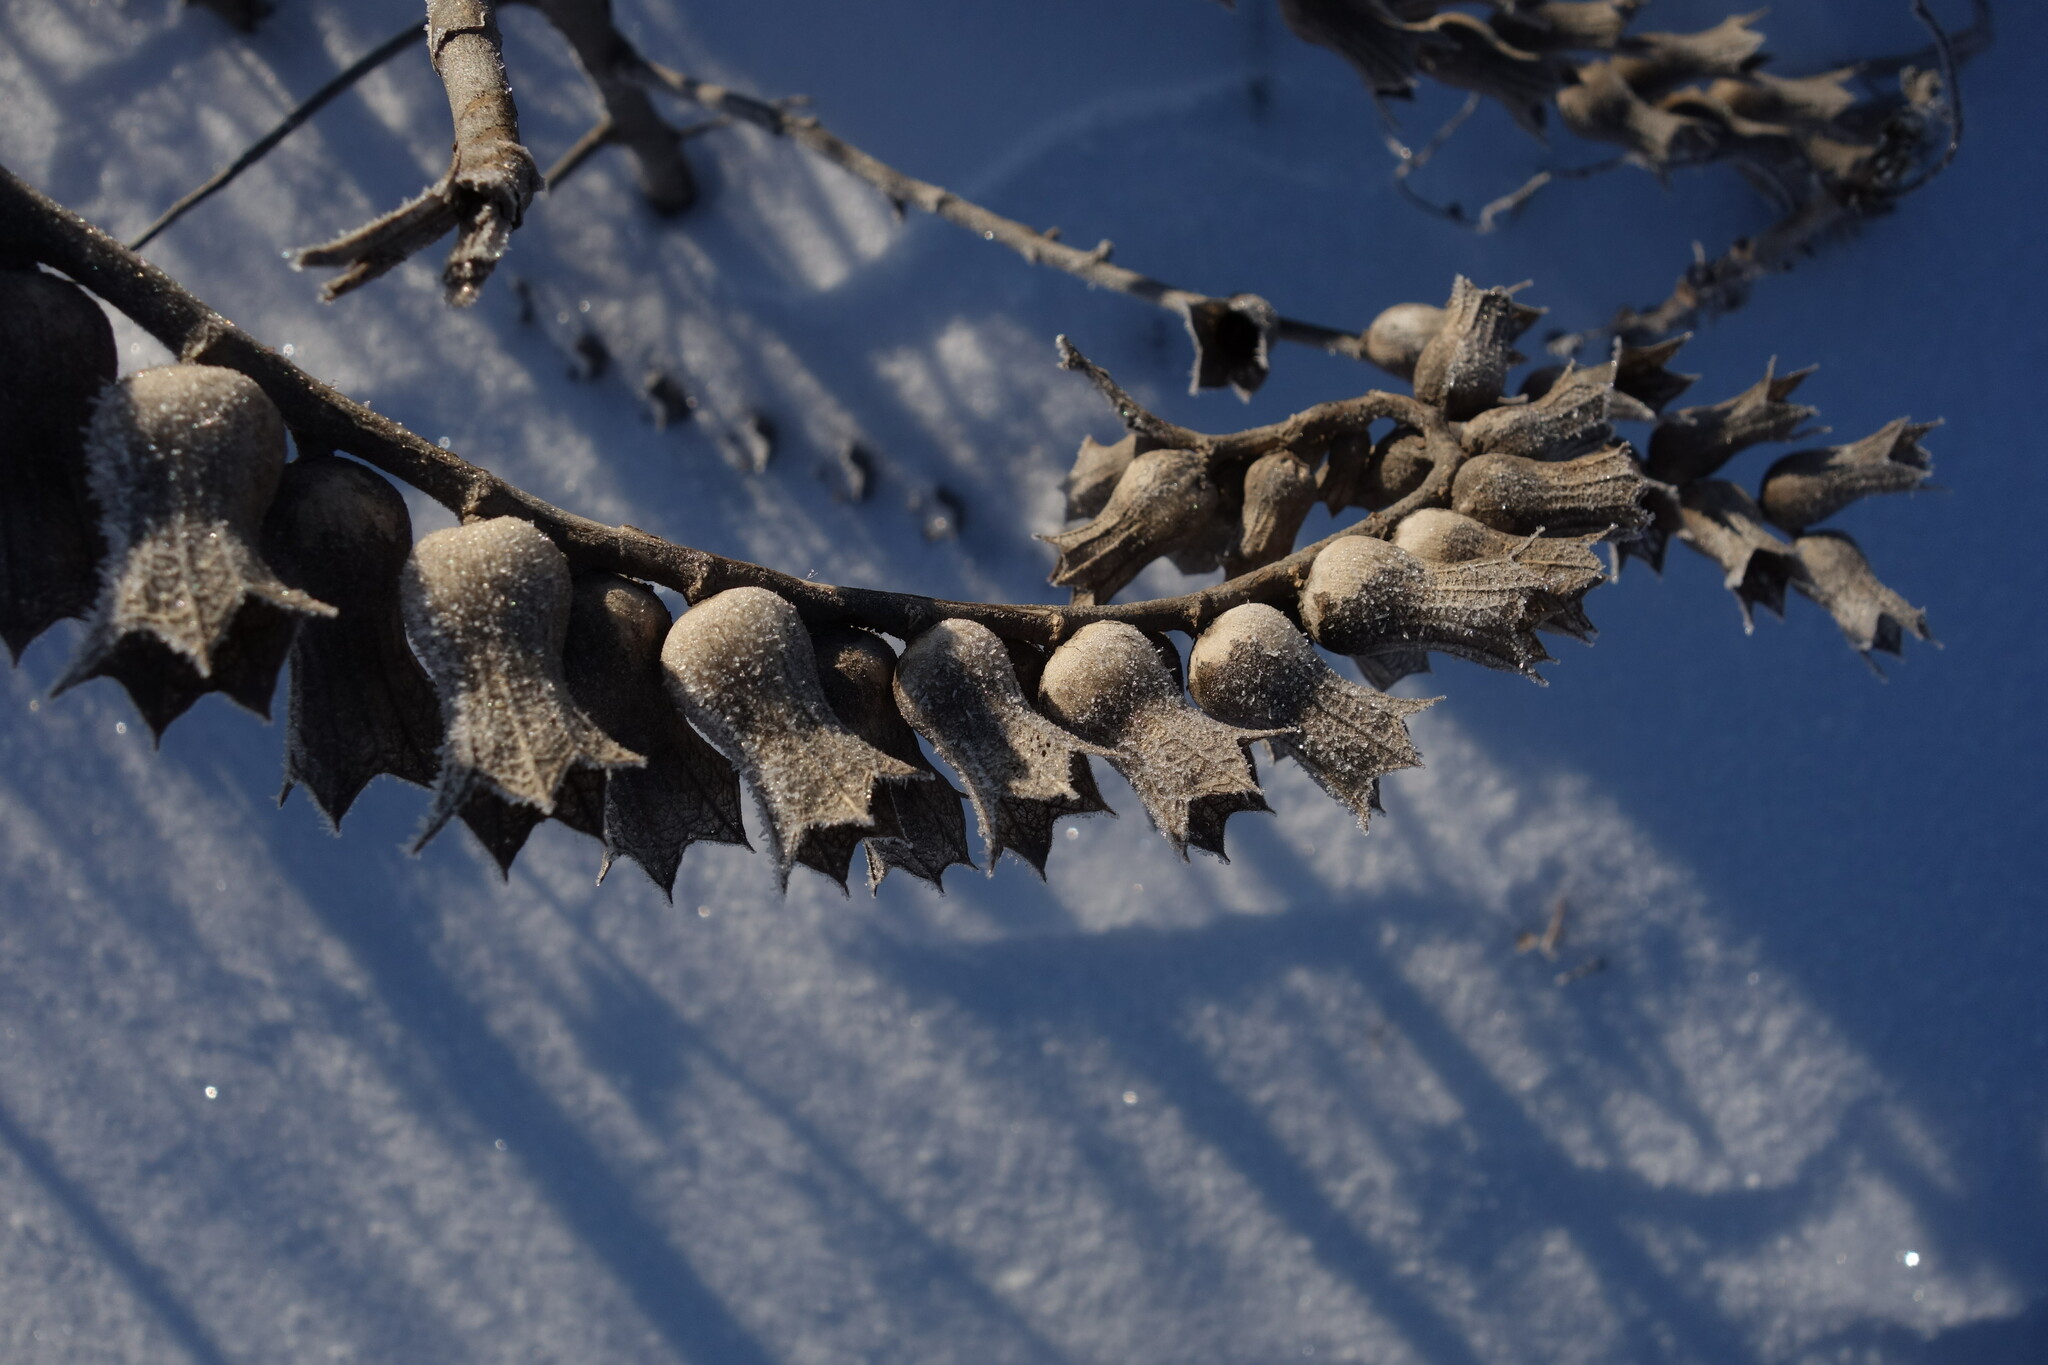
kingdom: Plantae
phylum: Tracheophyta
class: Magnoliopsida
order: Solanales
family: Solanaceae
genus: Hyoscyamus
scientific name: Hyoscyamus niger
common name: Henbane
